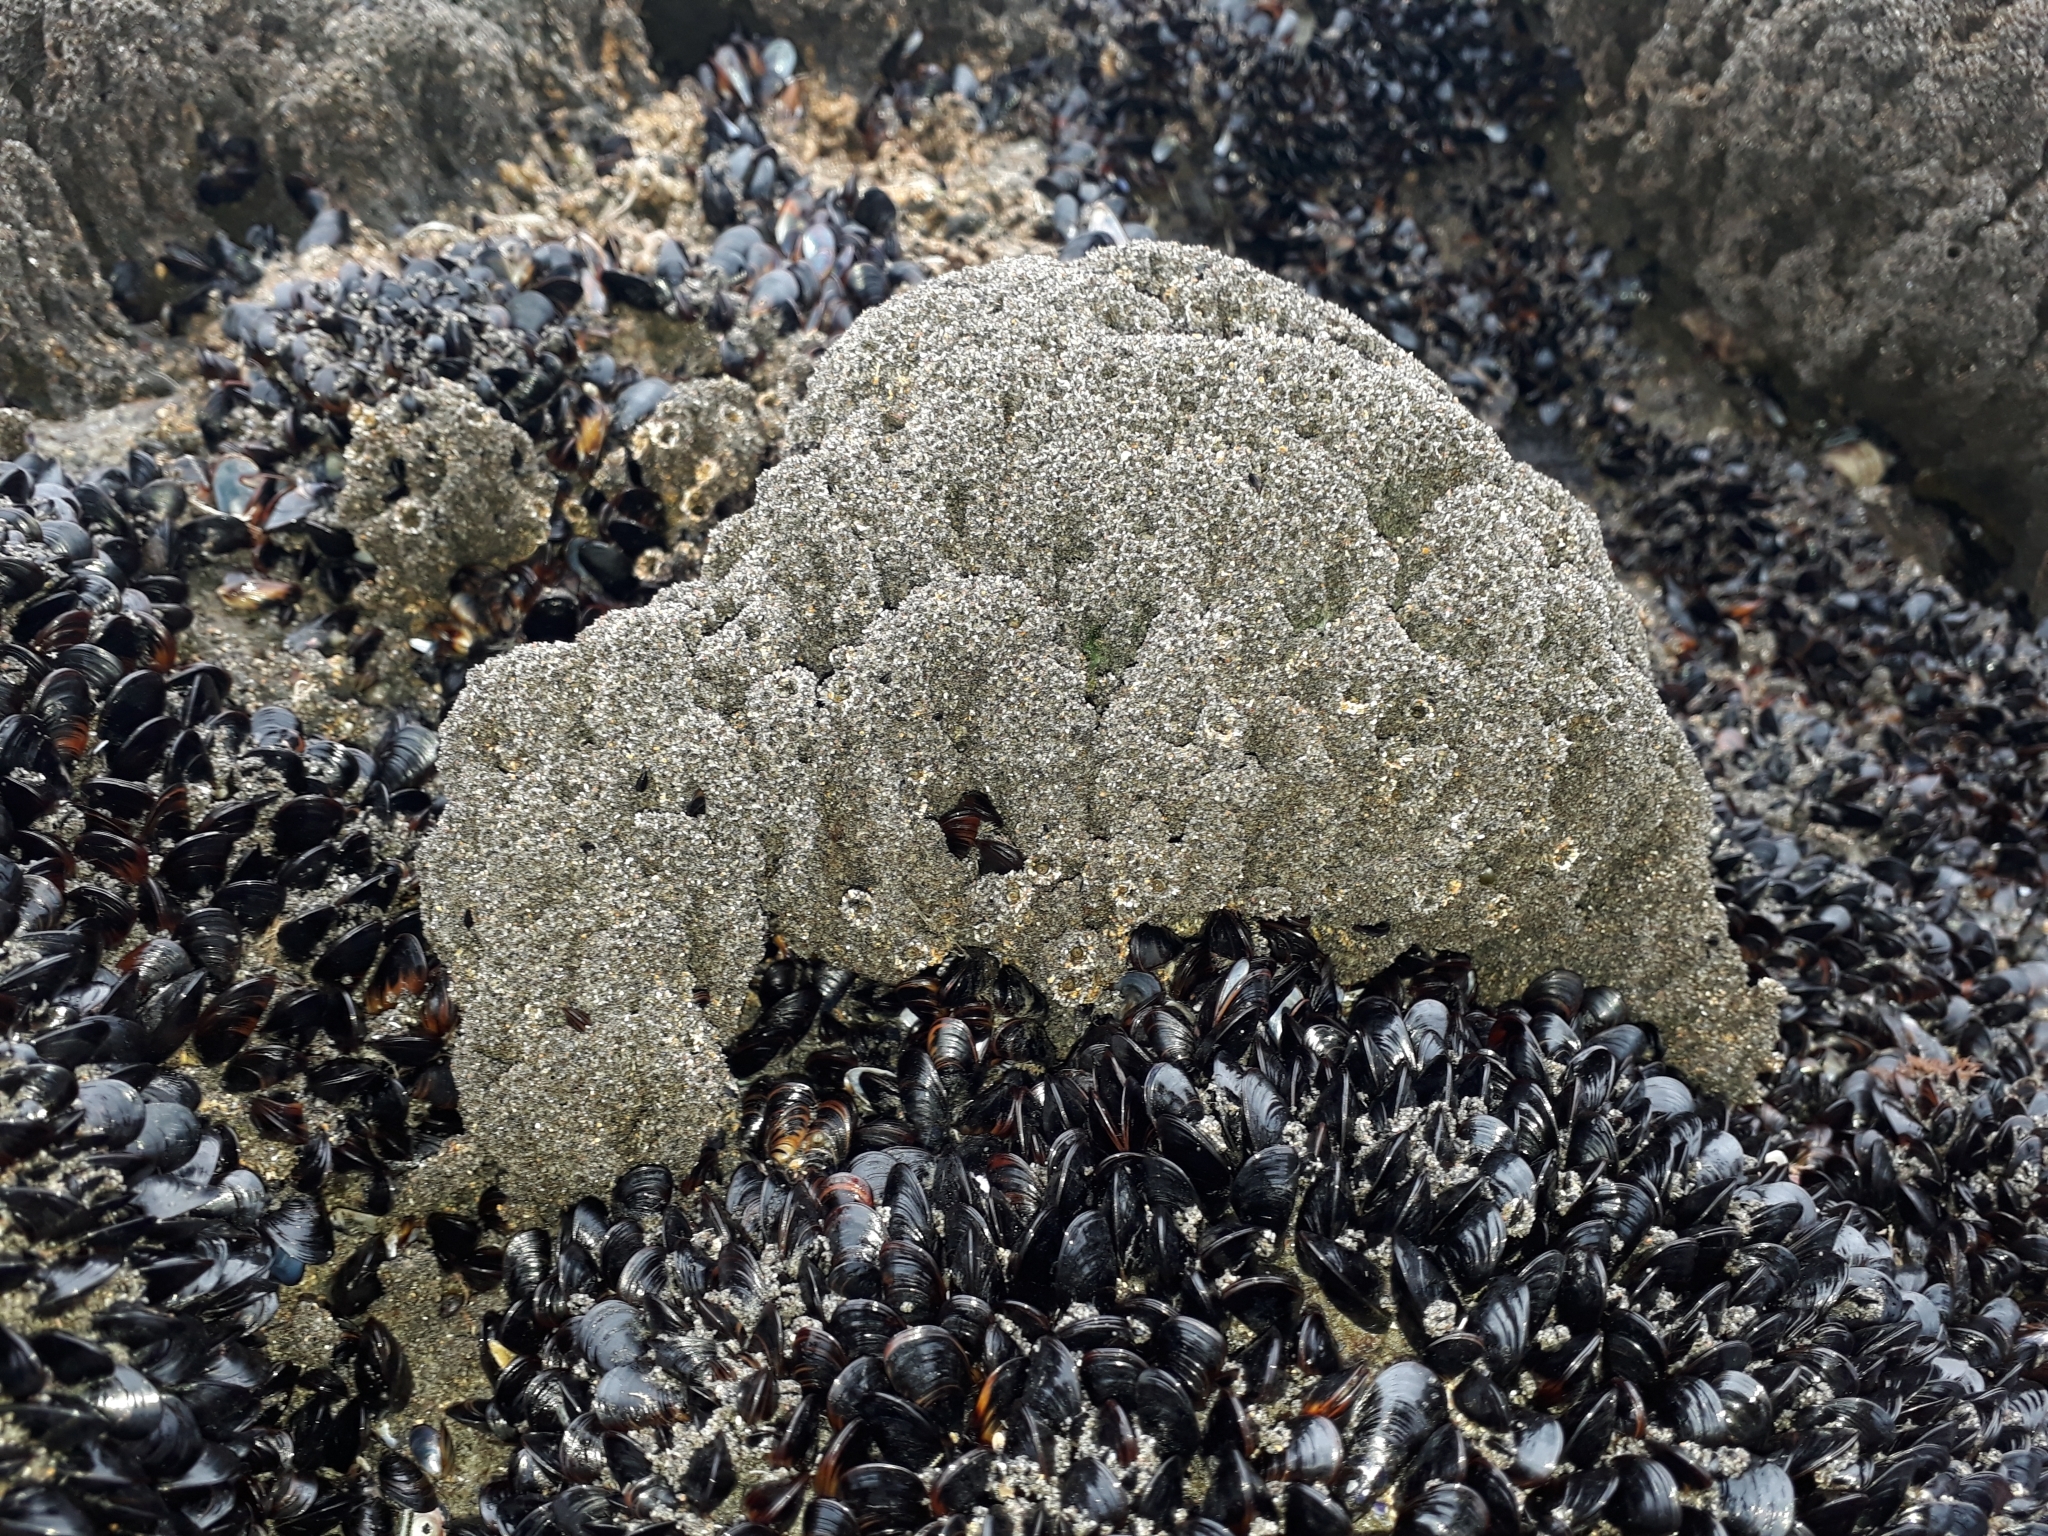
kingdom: Animalia
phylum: Annelida
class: Polychaeta
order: Sabellida
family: Sabellariidae
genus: Neosabellaria
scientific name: Neosabellaria kaiparaensis
